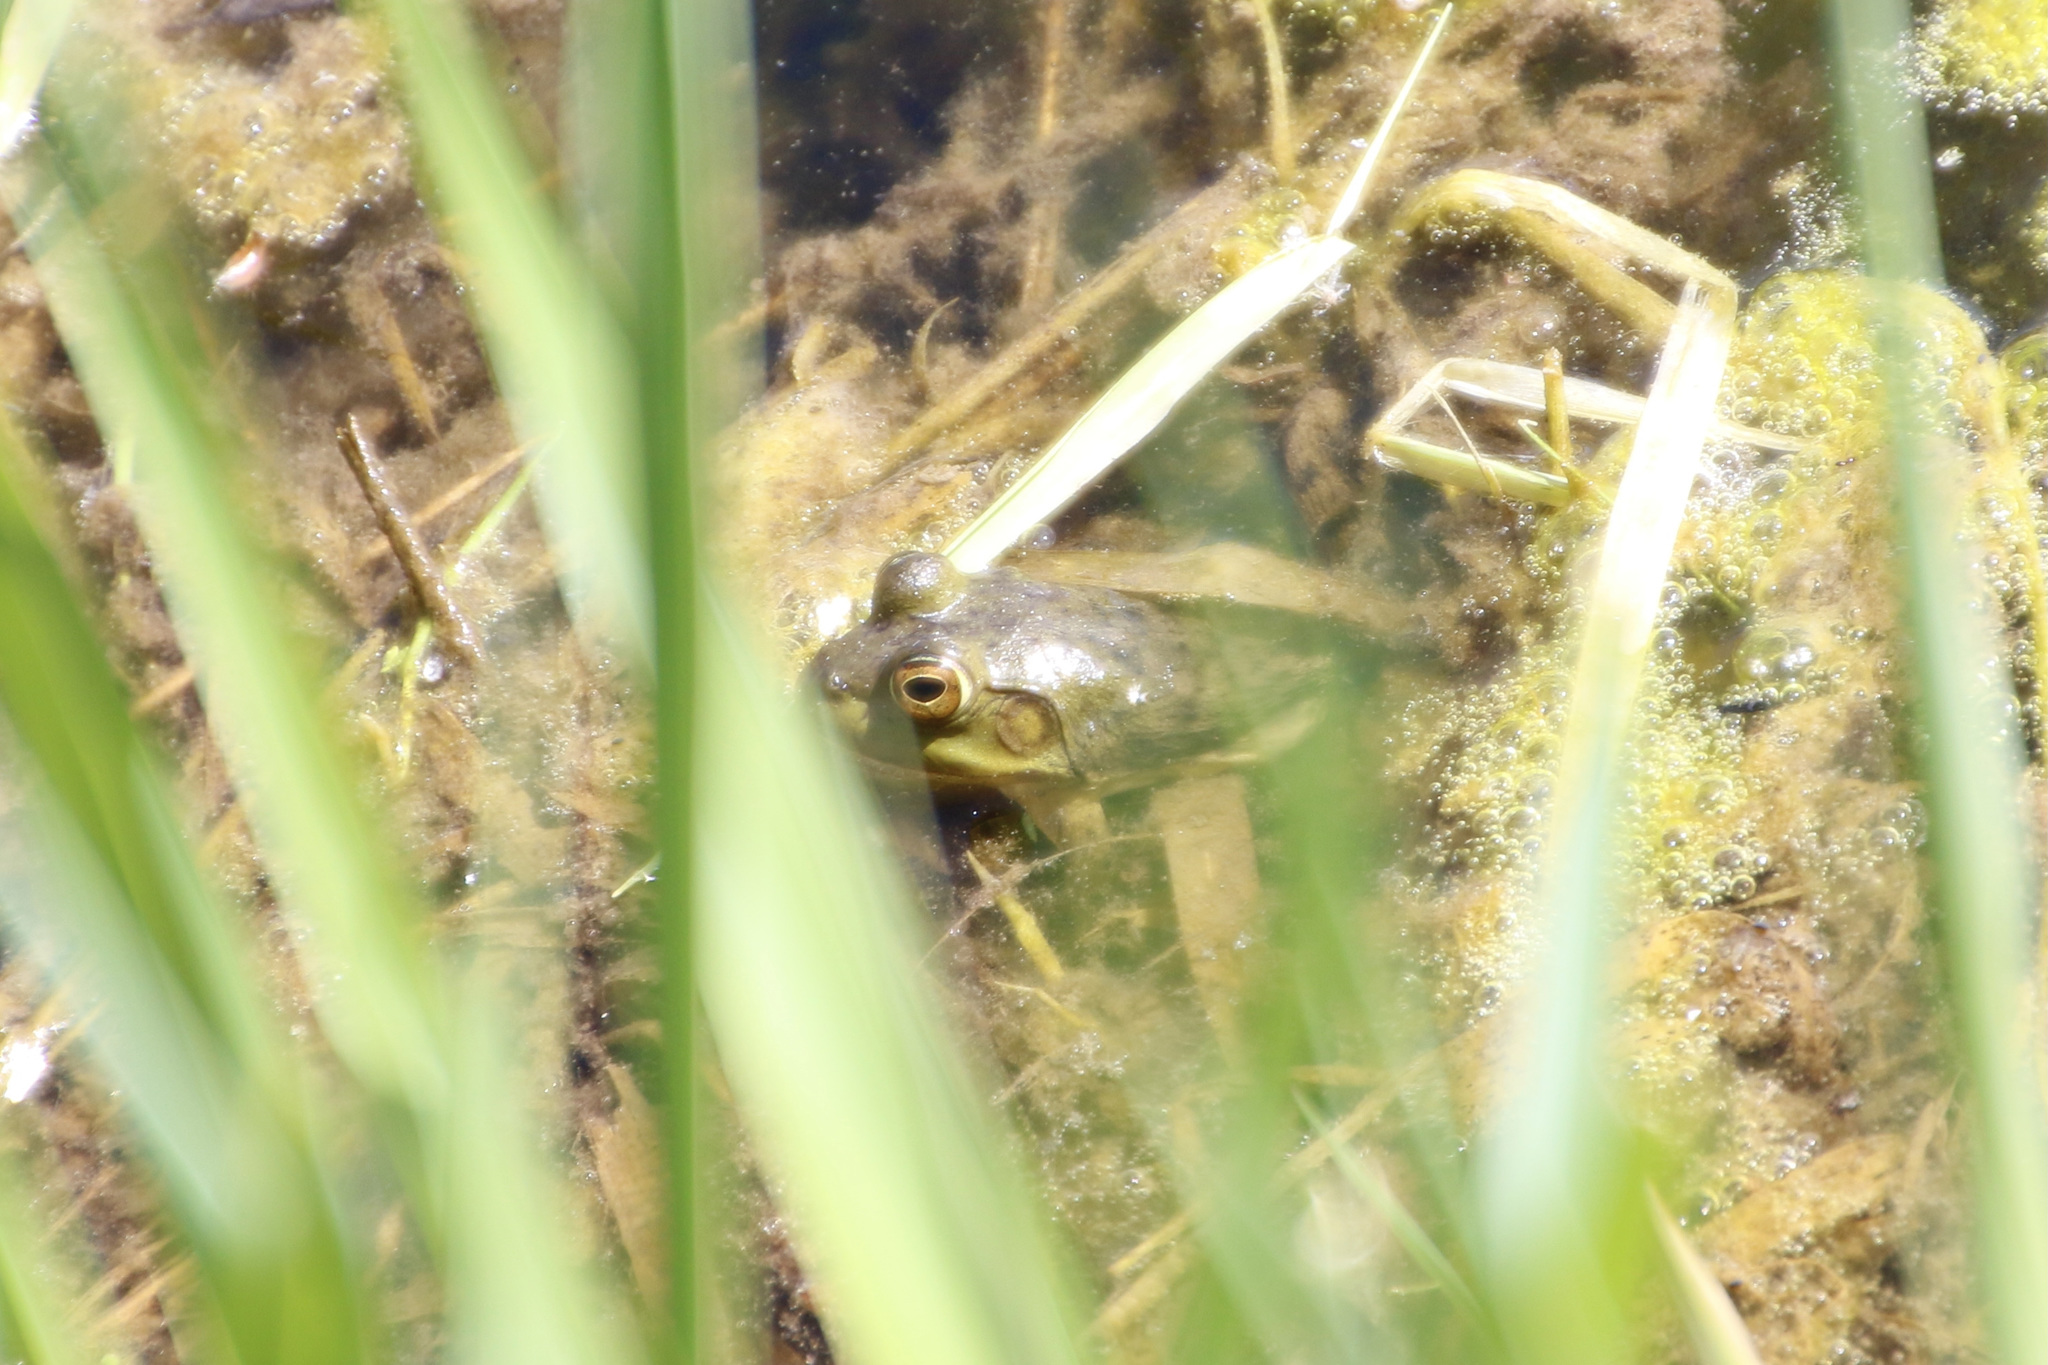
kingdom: Animalia
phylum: Chordata
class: Amphibia
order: Anura
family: Ranidae
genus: Lithobates
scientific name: Lithobates catesbeianus
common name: American bullfrog
